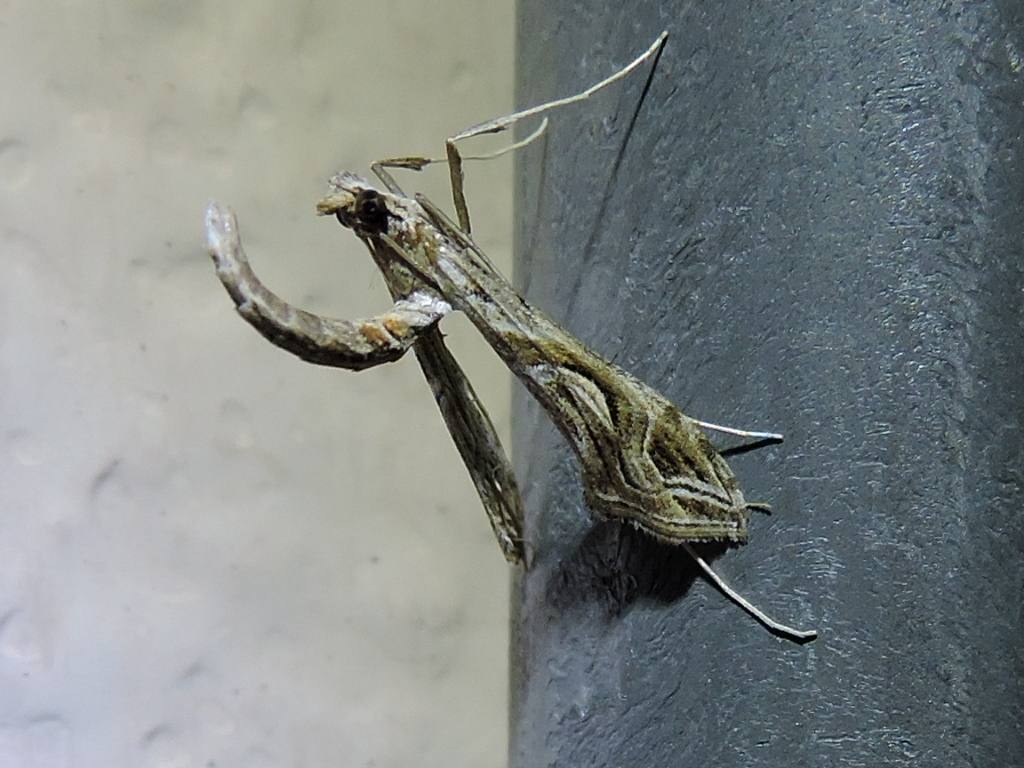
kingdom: Animalia
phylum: Arthropoda
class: Insecta
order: Lepidoptera
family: Crambidae
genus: Lineodes
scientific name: Lineodes integra
